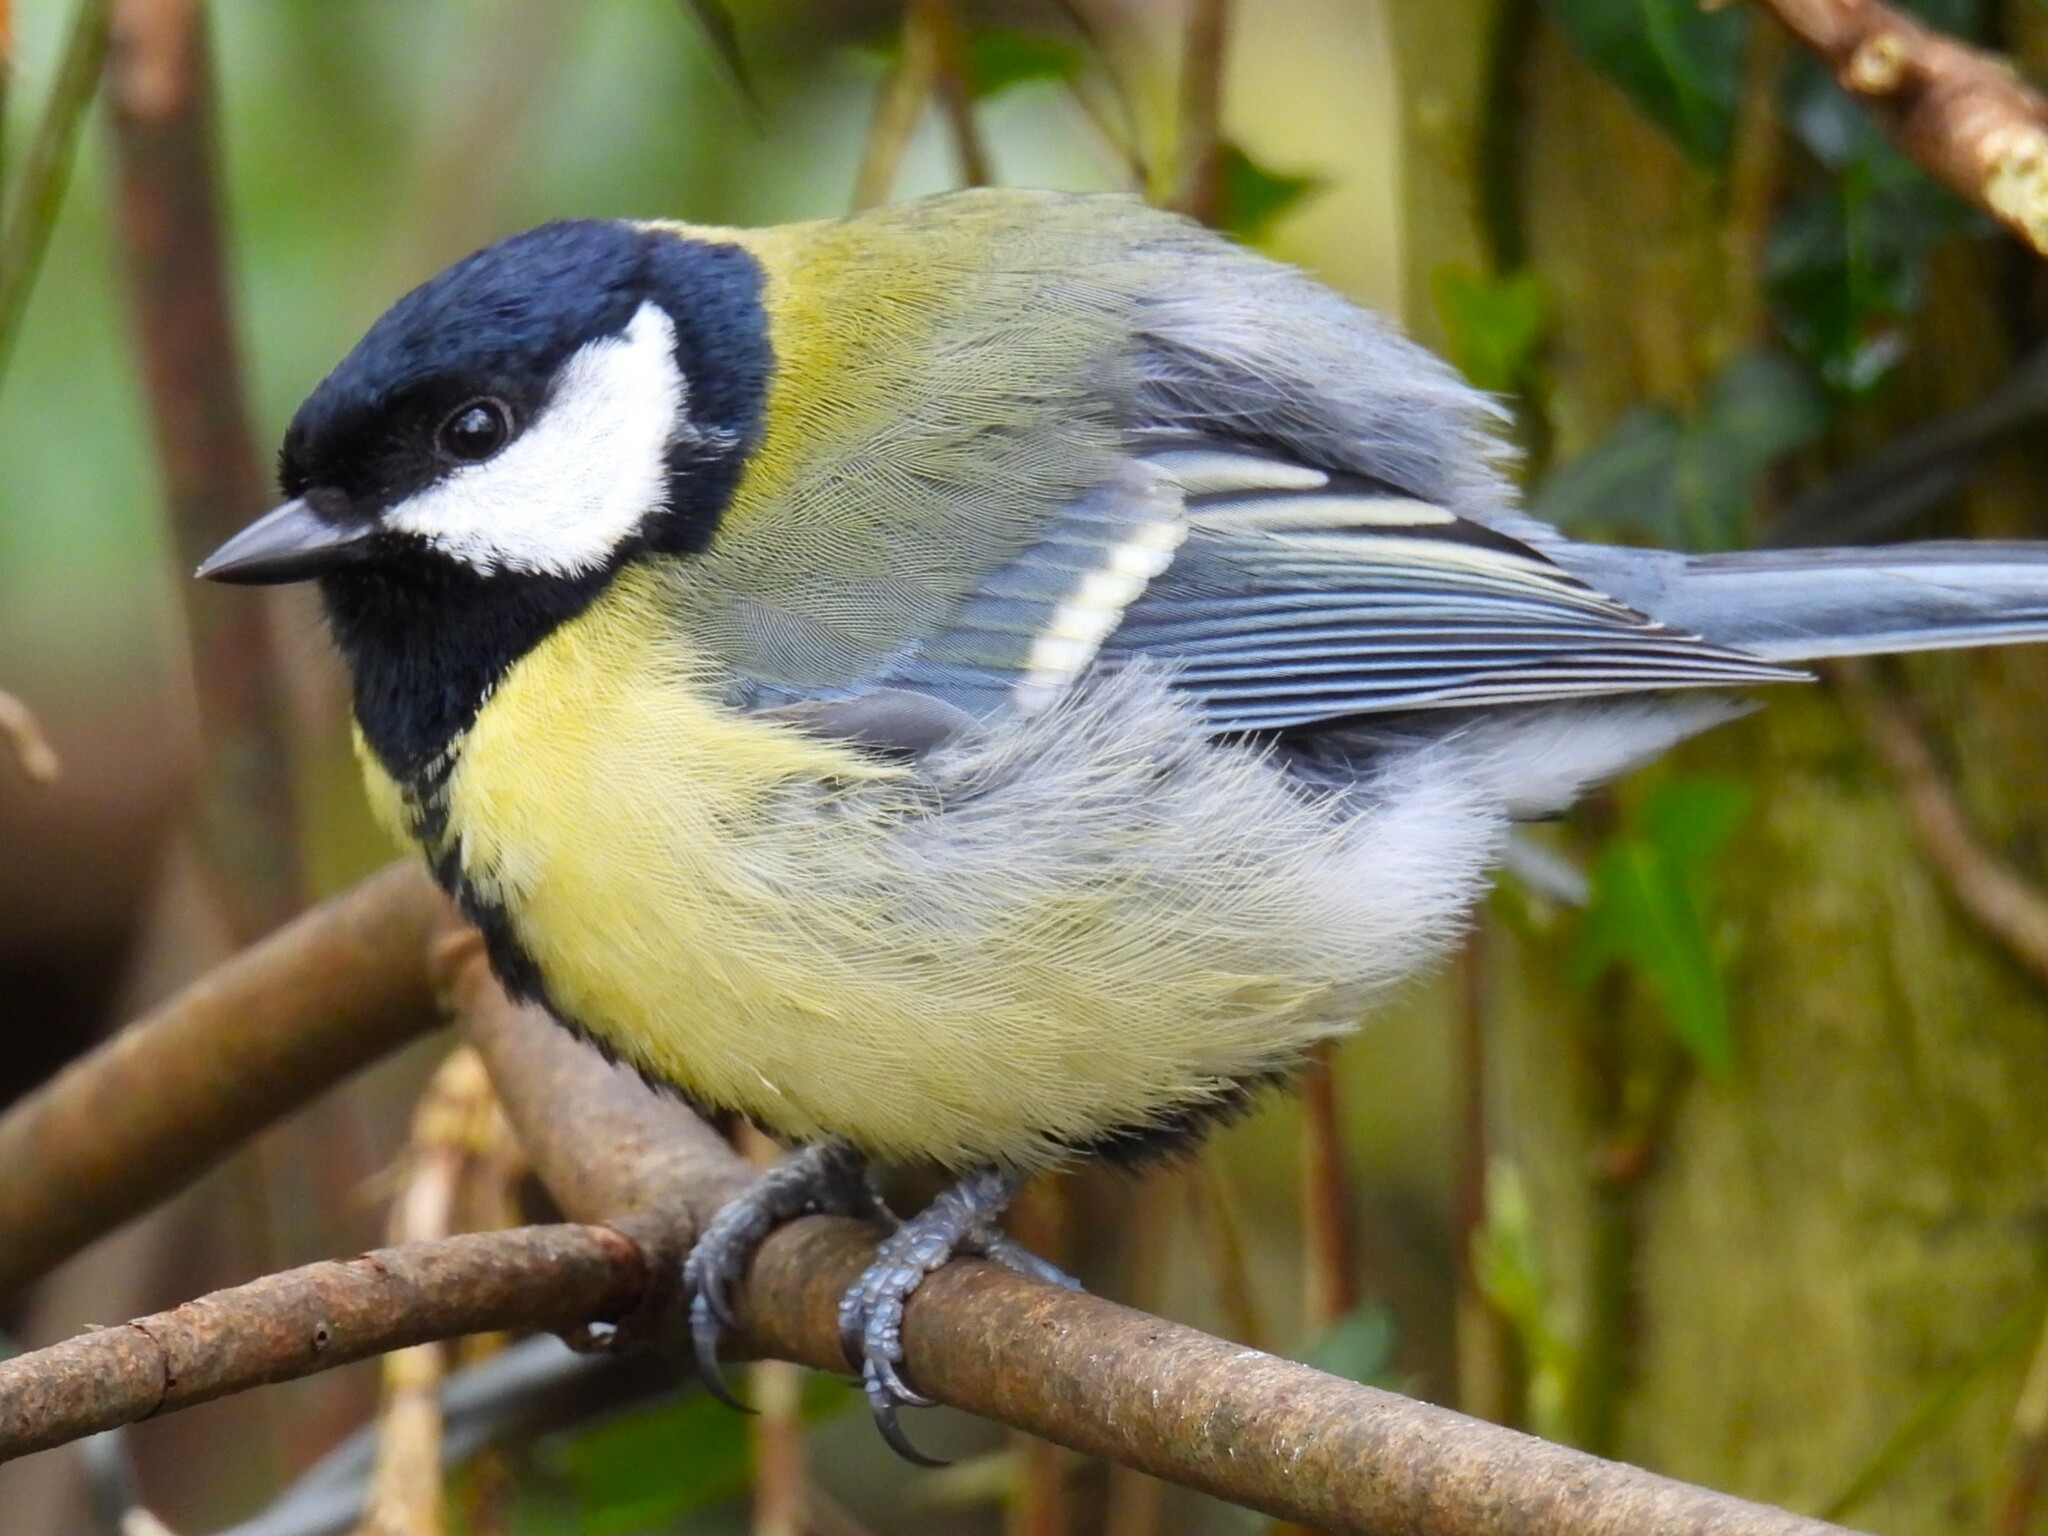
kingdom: Animalia
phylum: Chordata
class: Aves
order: Passeriformes
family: Paridae
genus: Parus
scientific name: Parus major
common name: Great tit
